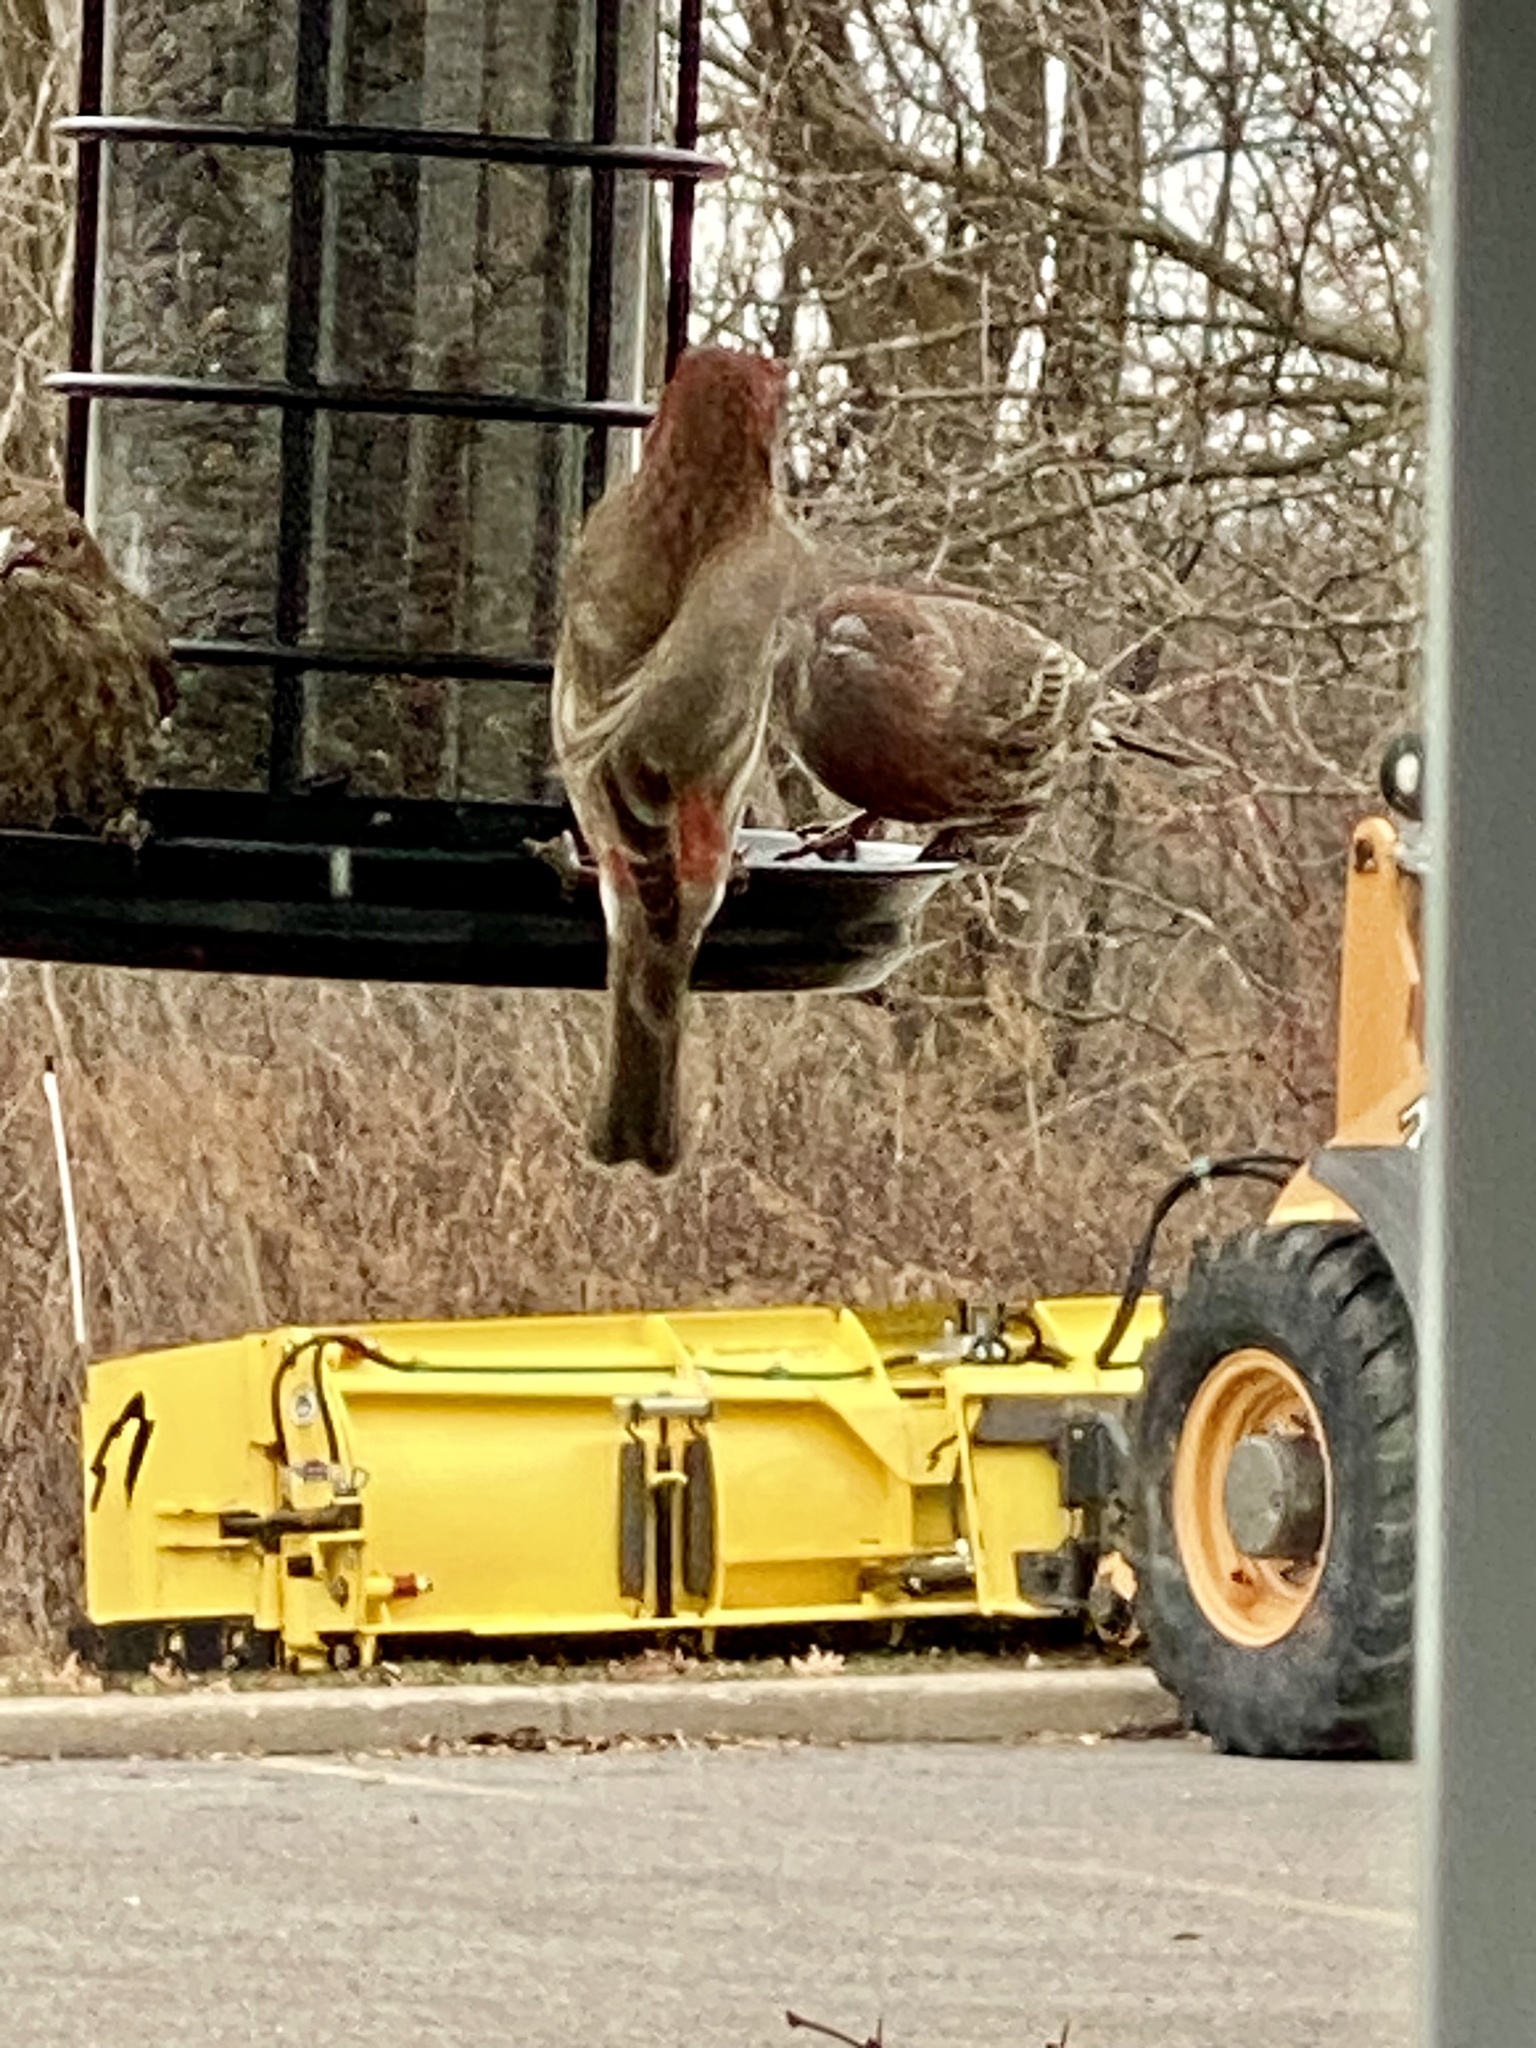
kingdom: Animalia
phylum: Chordata
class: Aves
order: Passeriformes
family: Fringillidae
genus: Haemorhous
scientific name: Haemorhous mexicanus
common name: House finch
